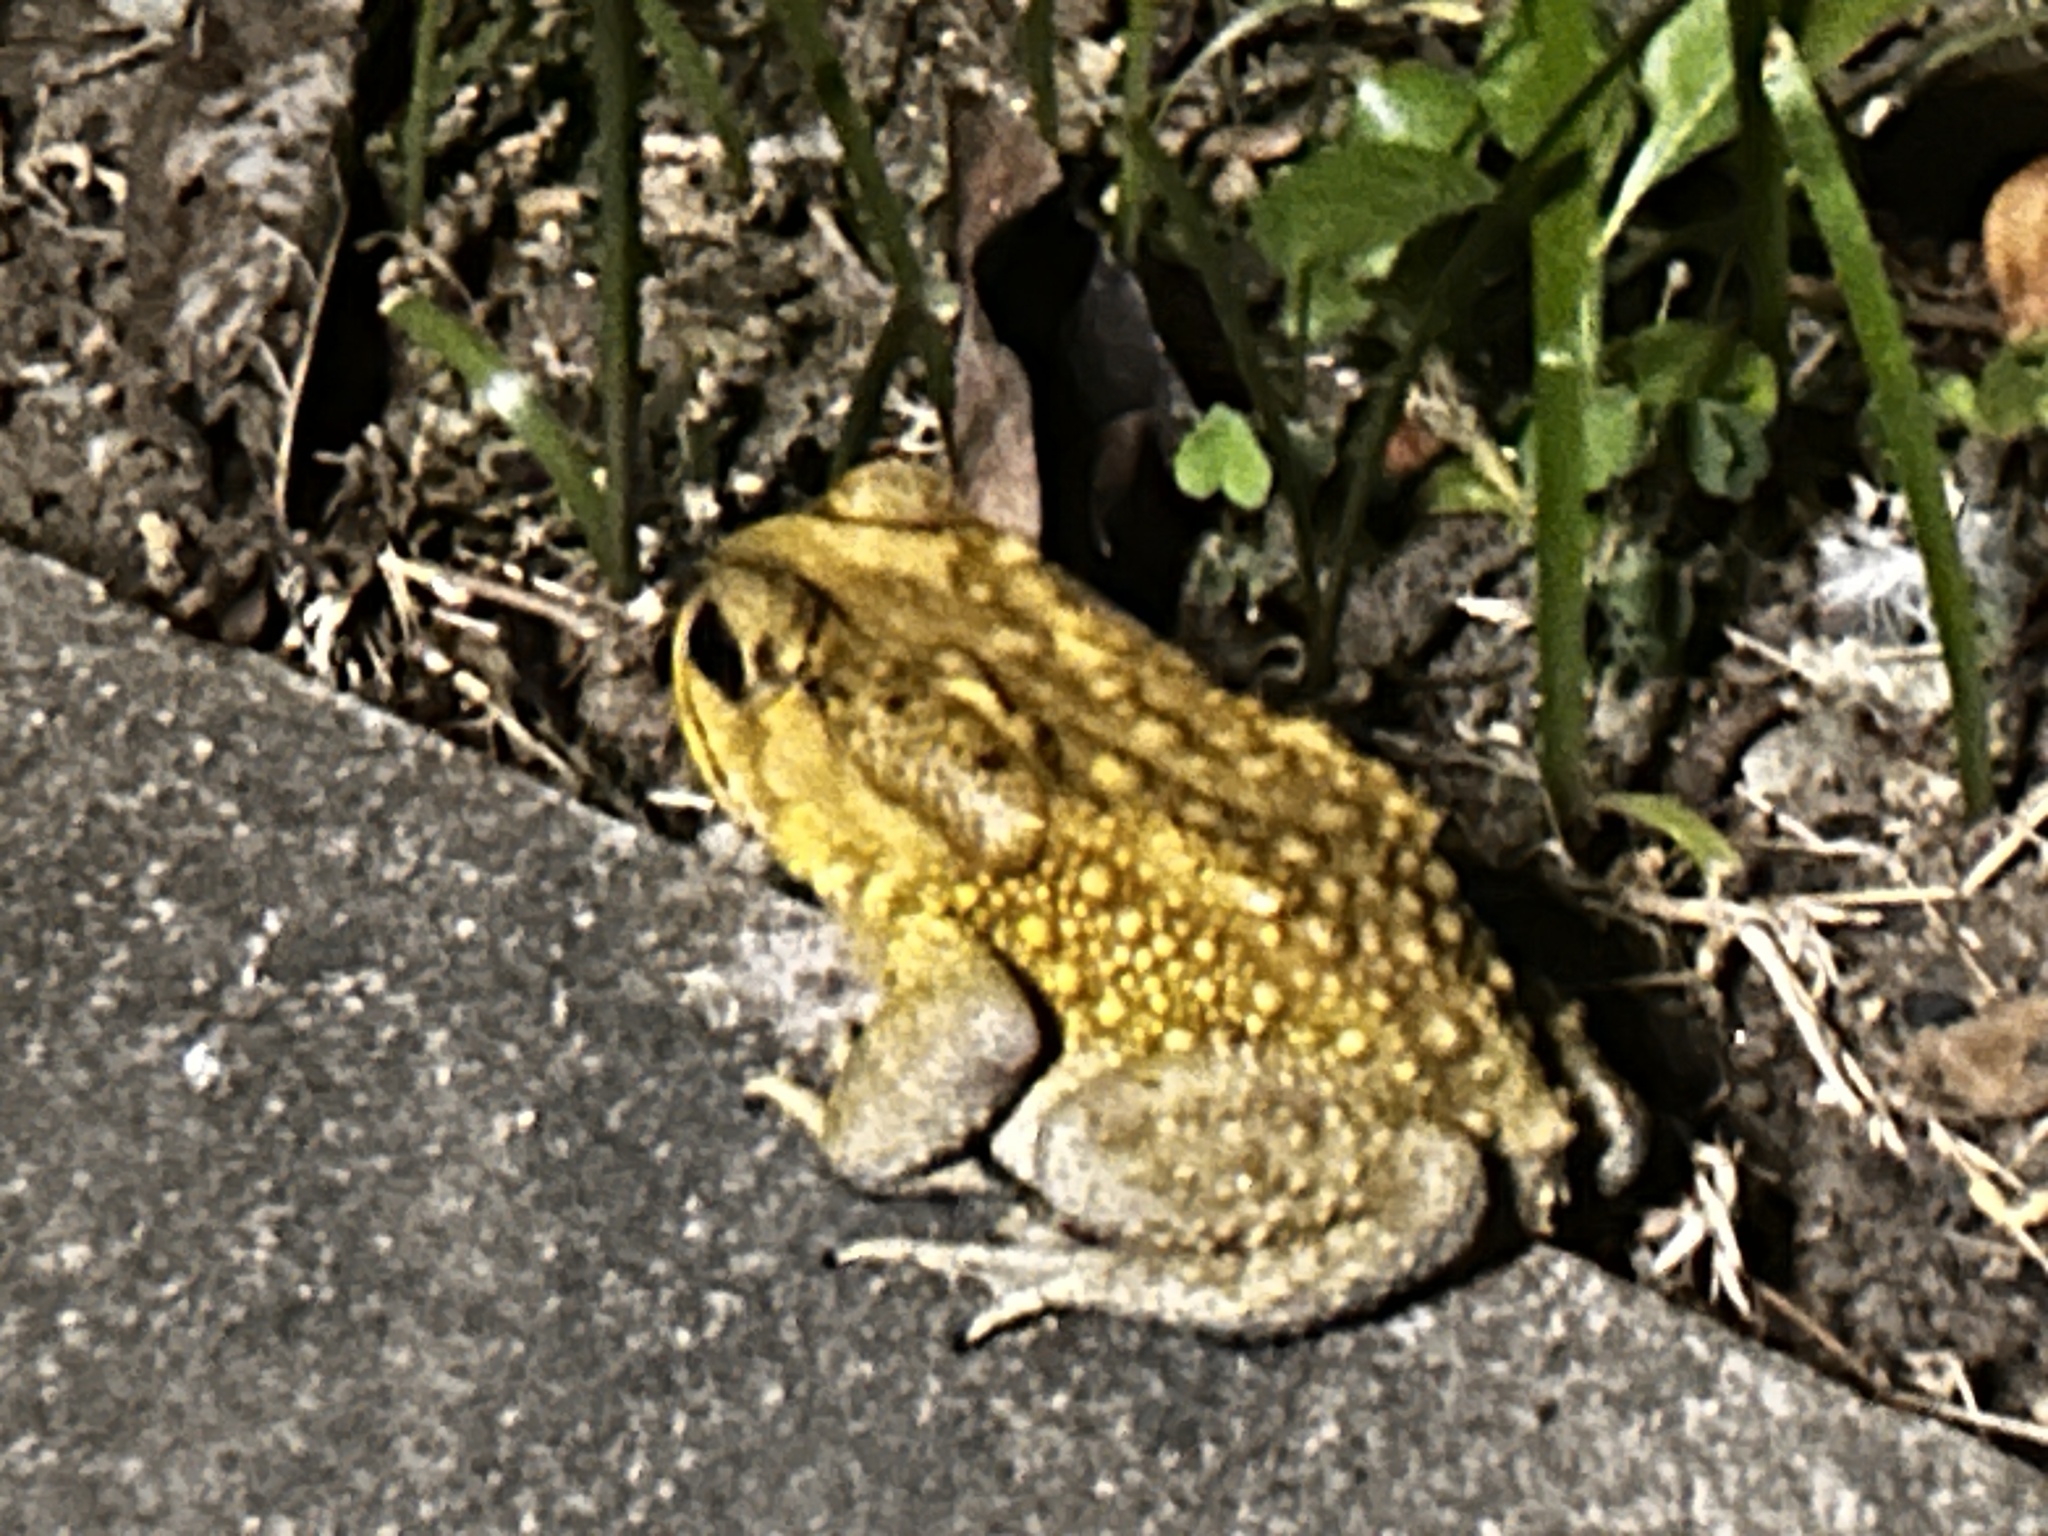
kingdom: Animalia
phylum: Chordata
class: Amphibia
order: Anura
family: Bufonidae
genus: Duttaphrynus
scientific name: Duttaphrynus melanostictus
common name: Common sunda toad
